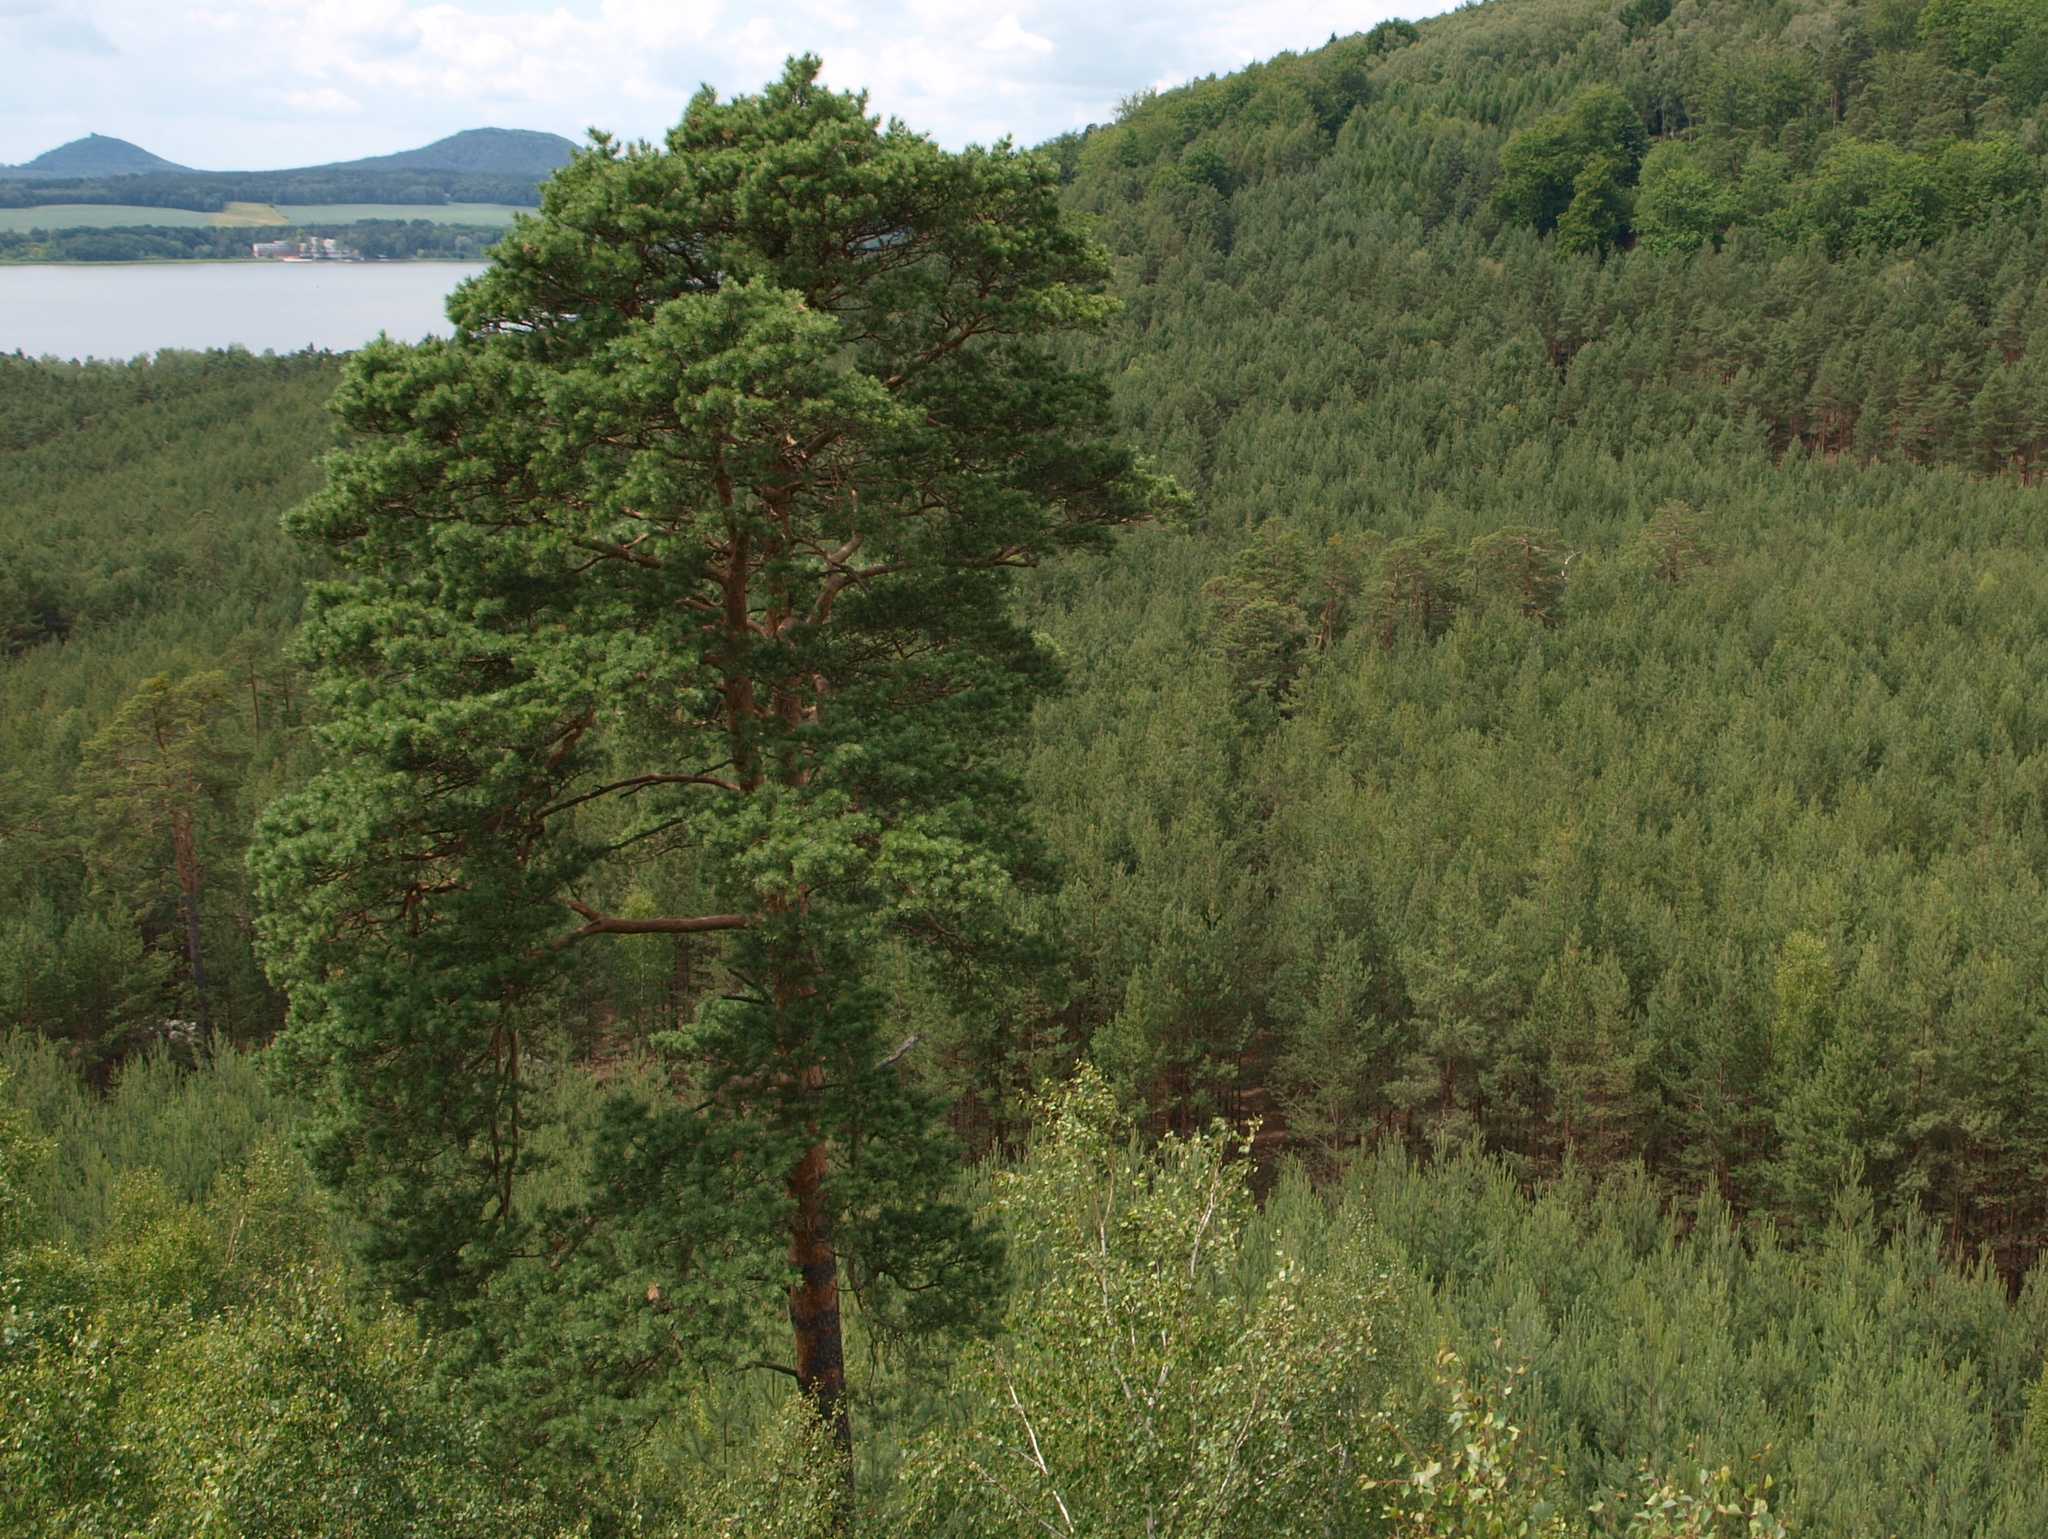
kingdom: Plantae
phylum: Tracheophyta
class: Pinopsida
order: Pinales
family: Pinaceae
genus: Pinus
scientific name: Pinus sylvestris
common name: Scots pine
